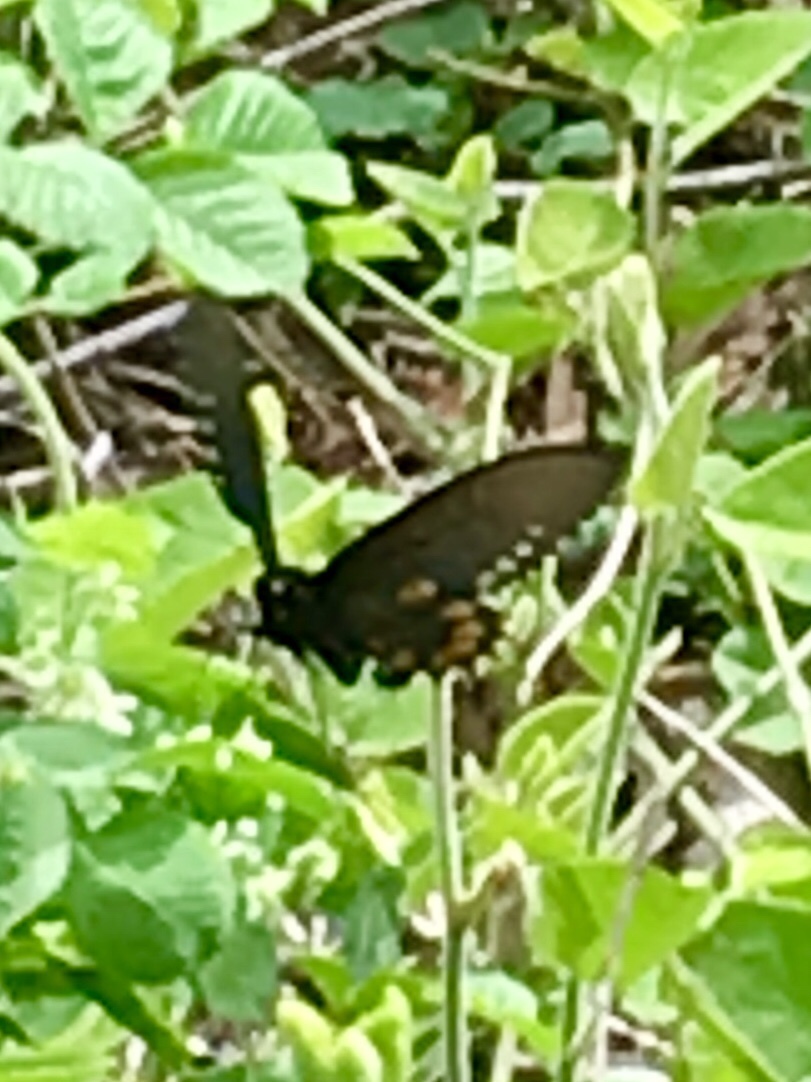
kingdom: Animalia
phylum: Arthropoda
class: Insecta
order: Lepidoptera
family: Papilionidae
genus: Battus
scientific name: Battus philenor
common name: Pipevine swallowtail
